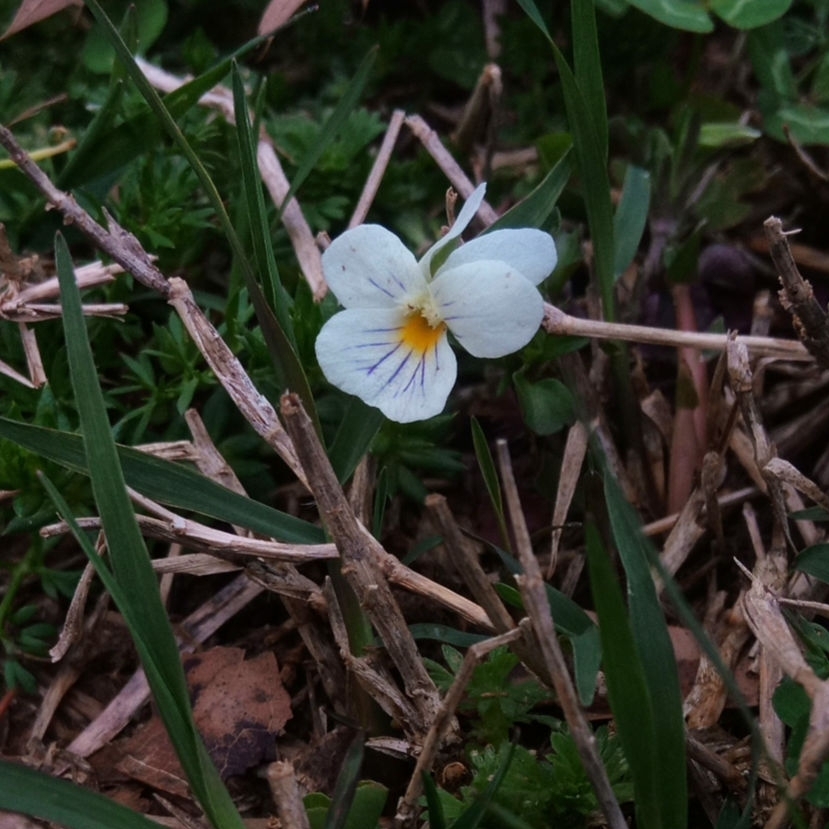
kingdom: Plantae
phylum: Tracheophyta
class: Magnoliopsida
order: Malpighiales
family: Violaceae
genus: Viola
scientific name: Viola rafinesquei
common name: American field pansy
